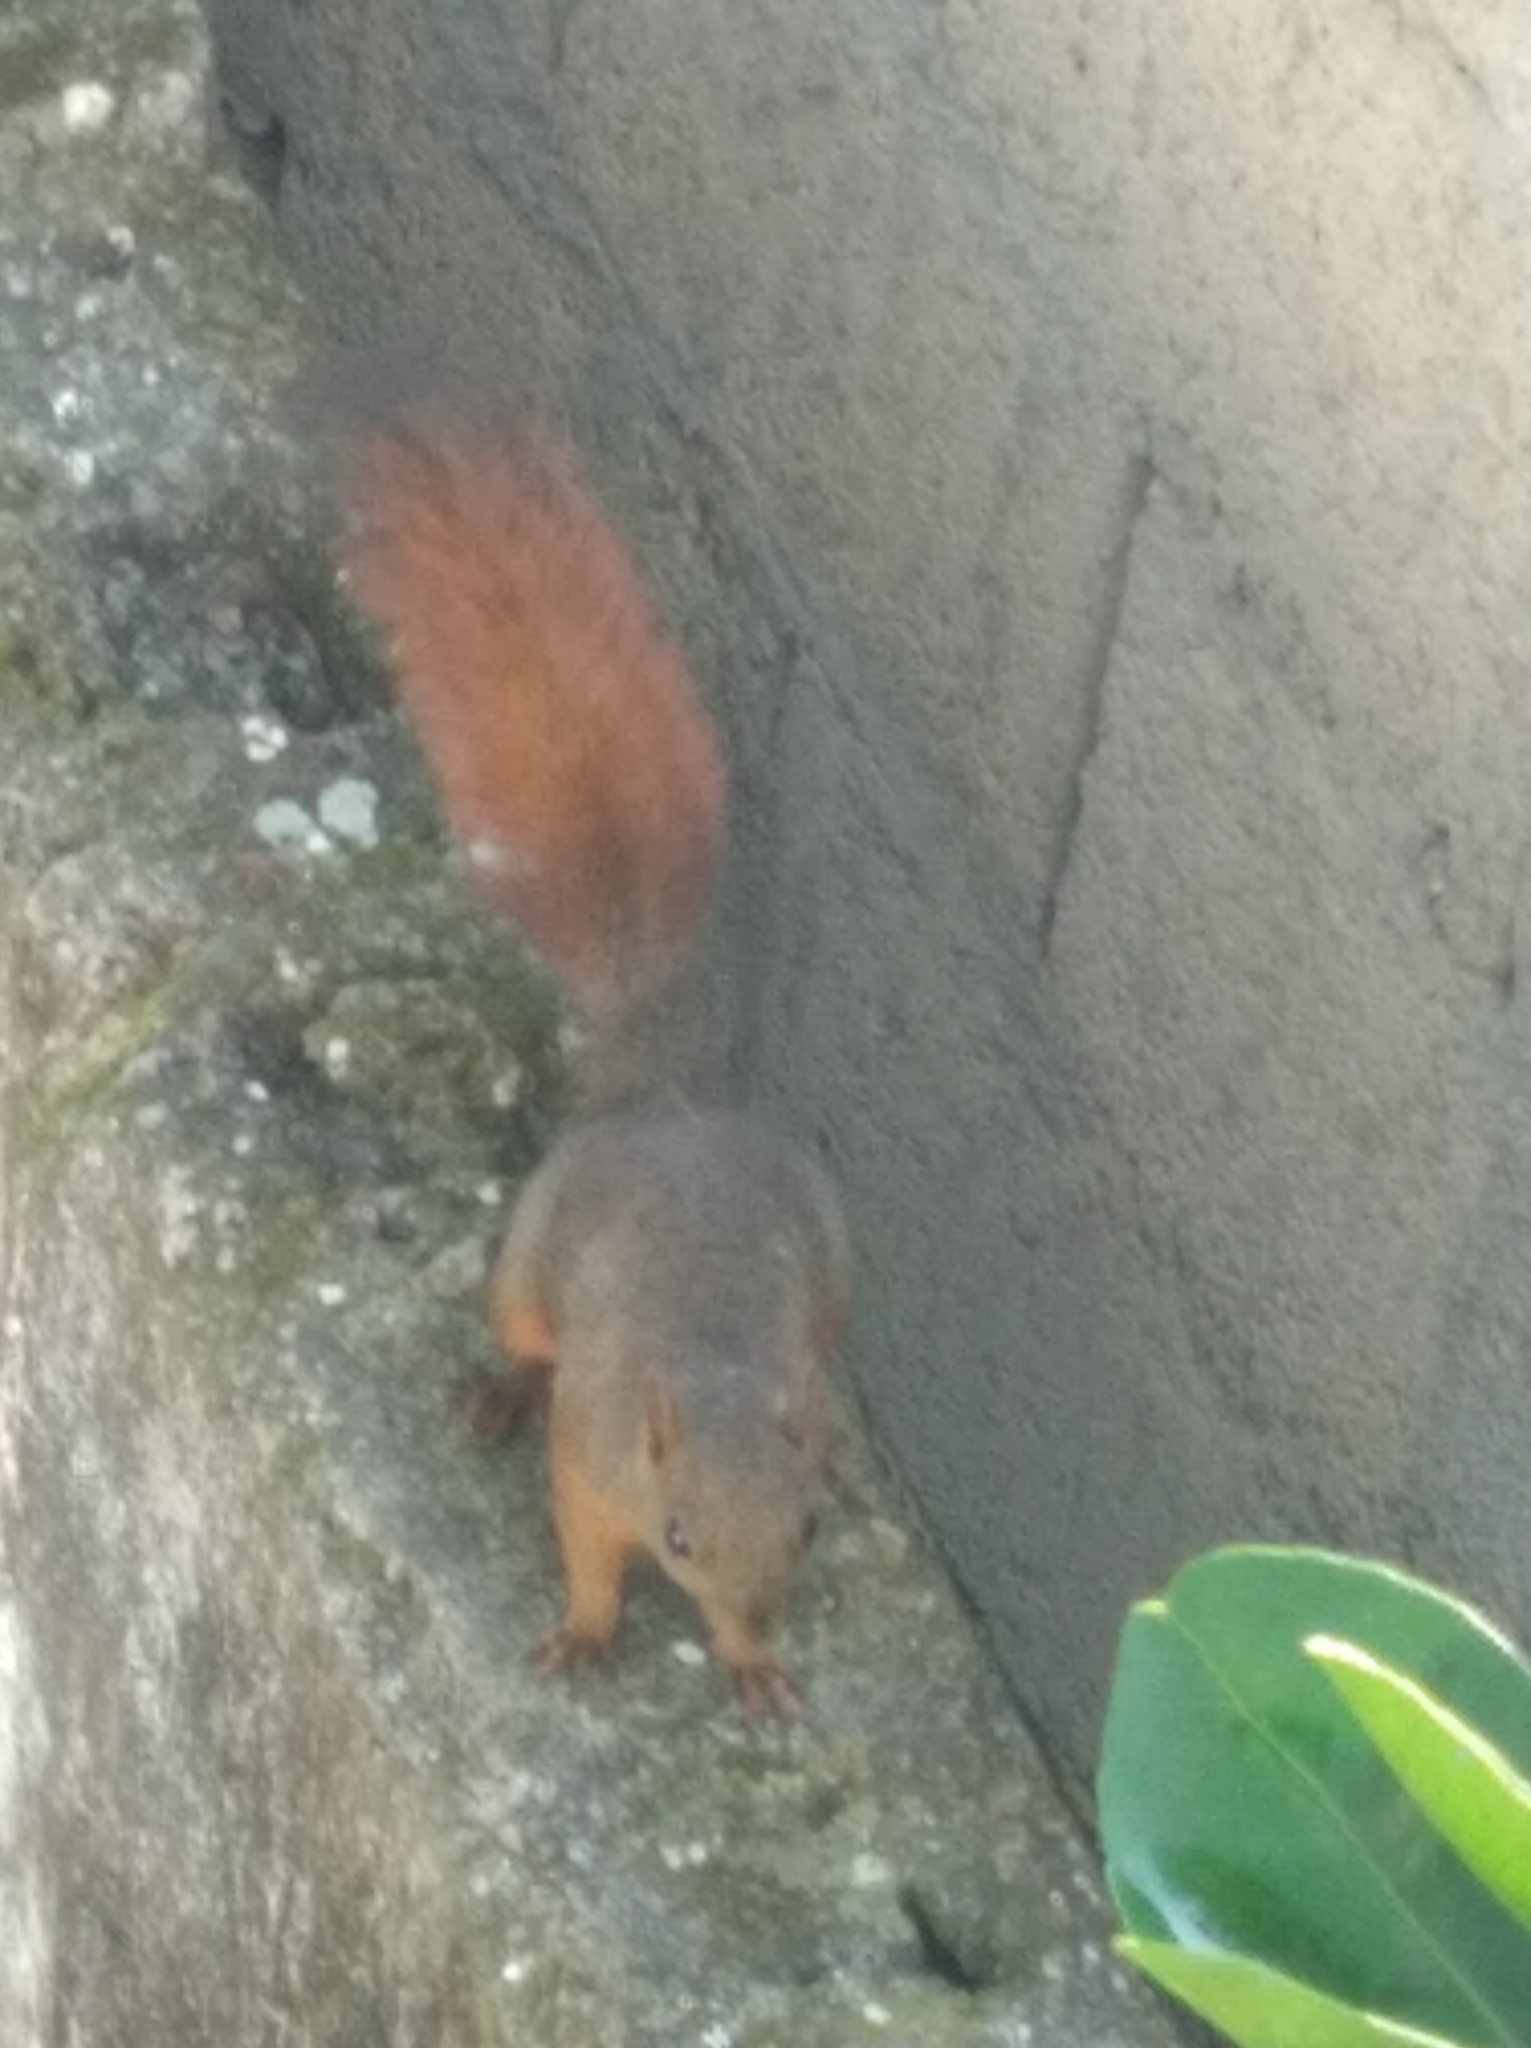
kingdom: Animalia
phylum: Chordata
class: Mammalia
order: Rodentia
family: Sciuridae
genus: Sciurus
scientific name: Sciurus granatensis
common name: Red-tailed squirrel
